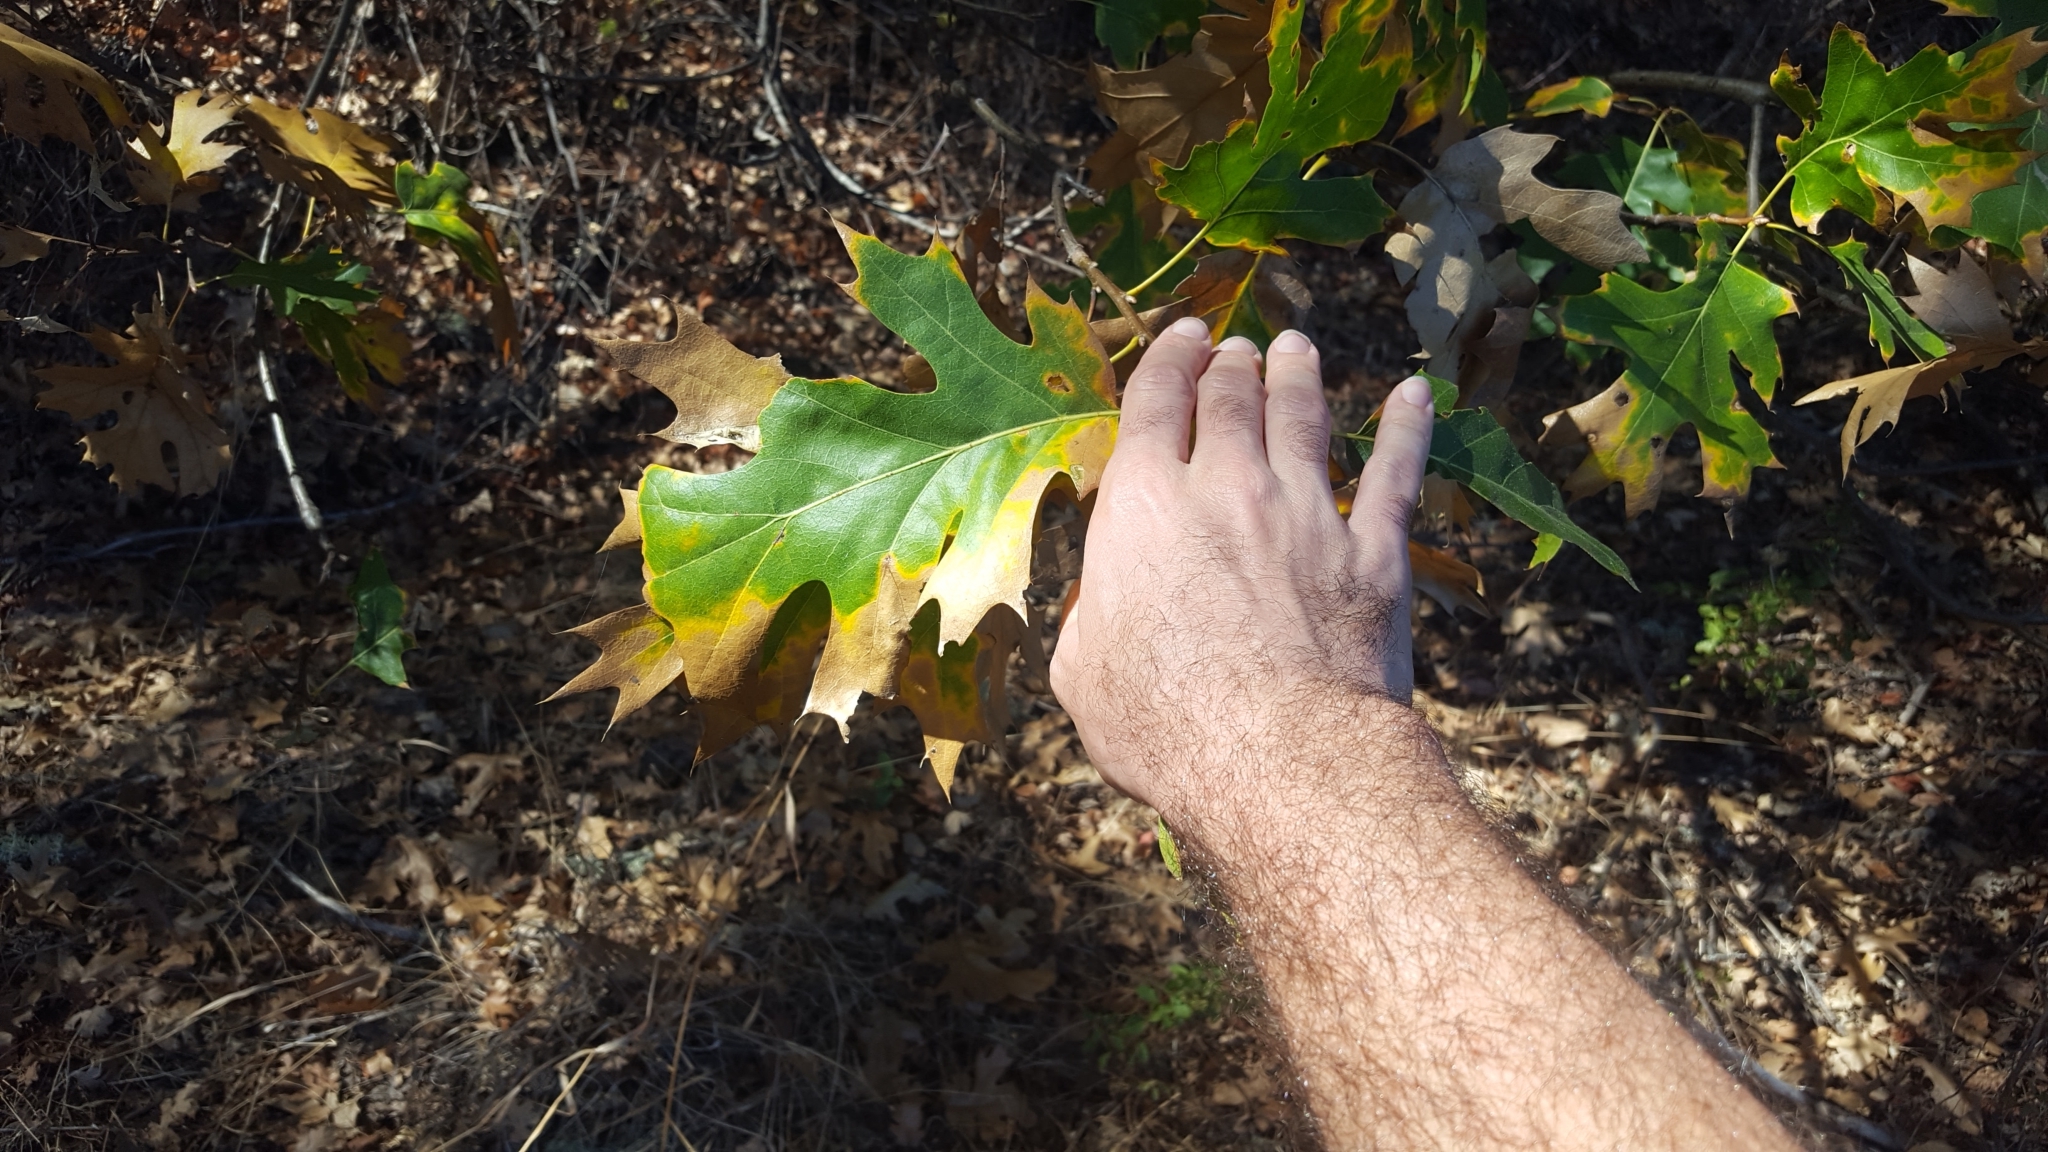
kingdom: Plantae
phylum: Tracheophyta
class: Magnoliopsida
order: Fagales
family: Fagaceae
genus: Quercus
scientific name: Quercus kelloggii
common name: California black oak
